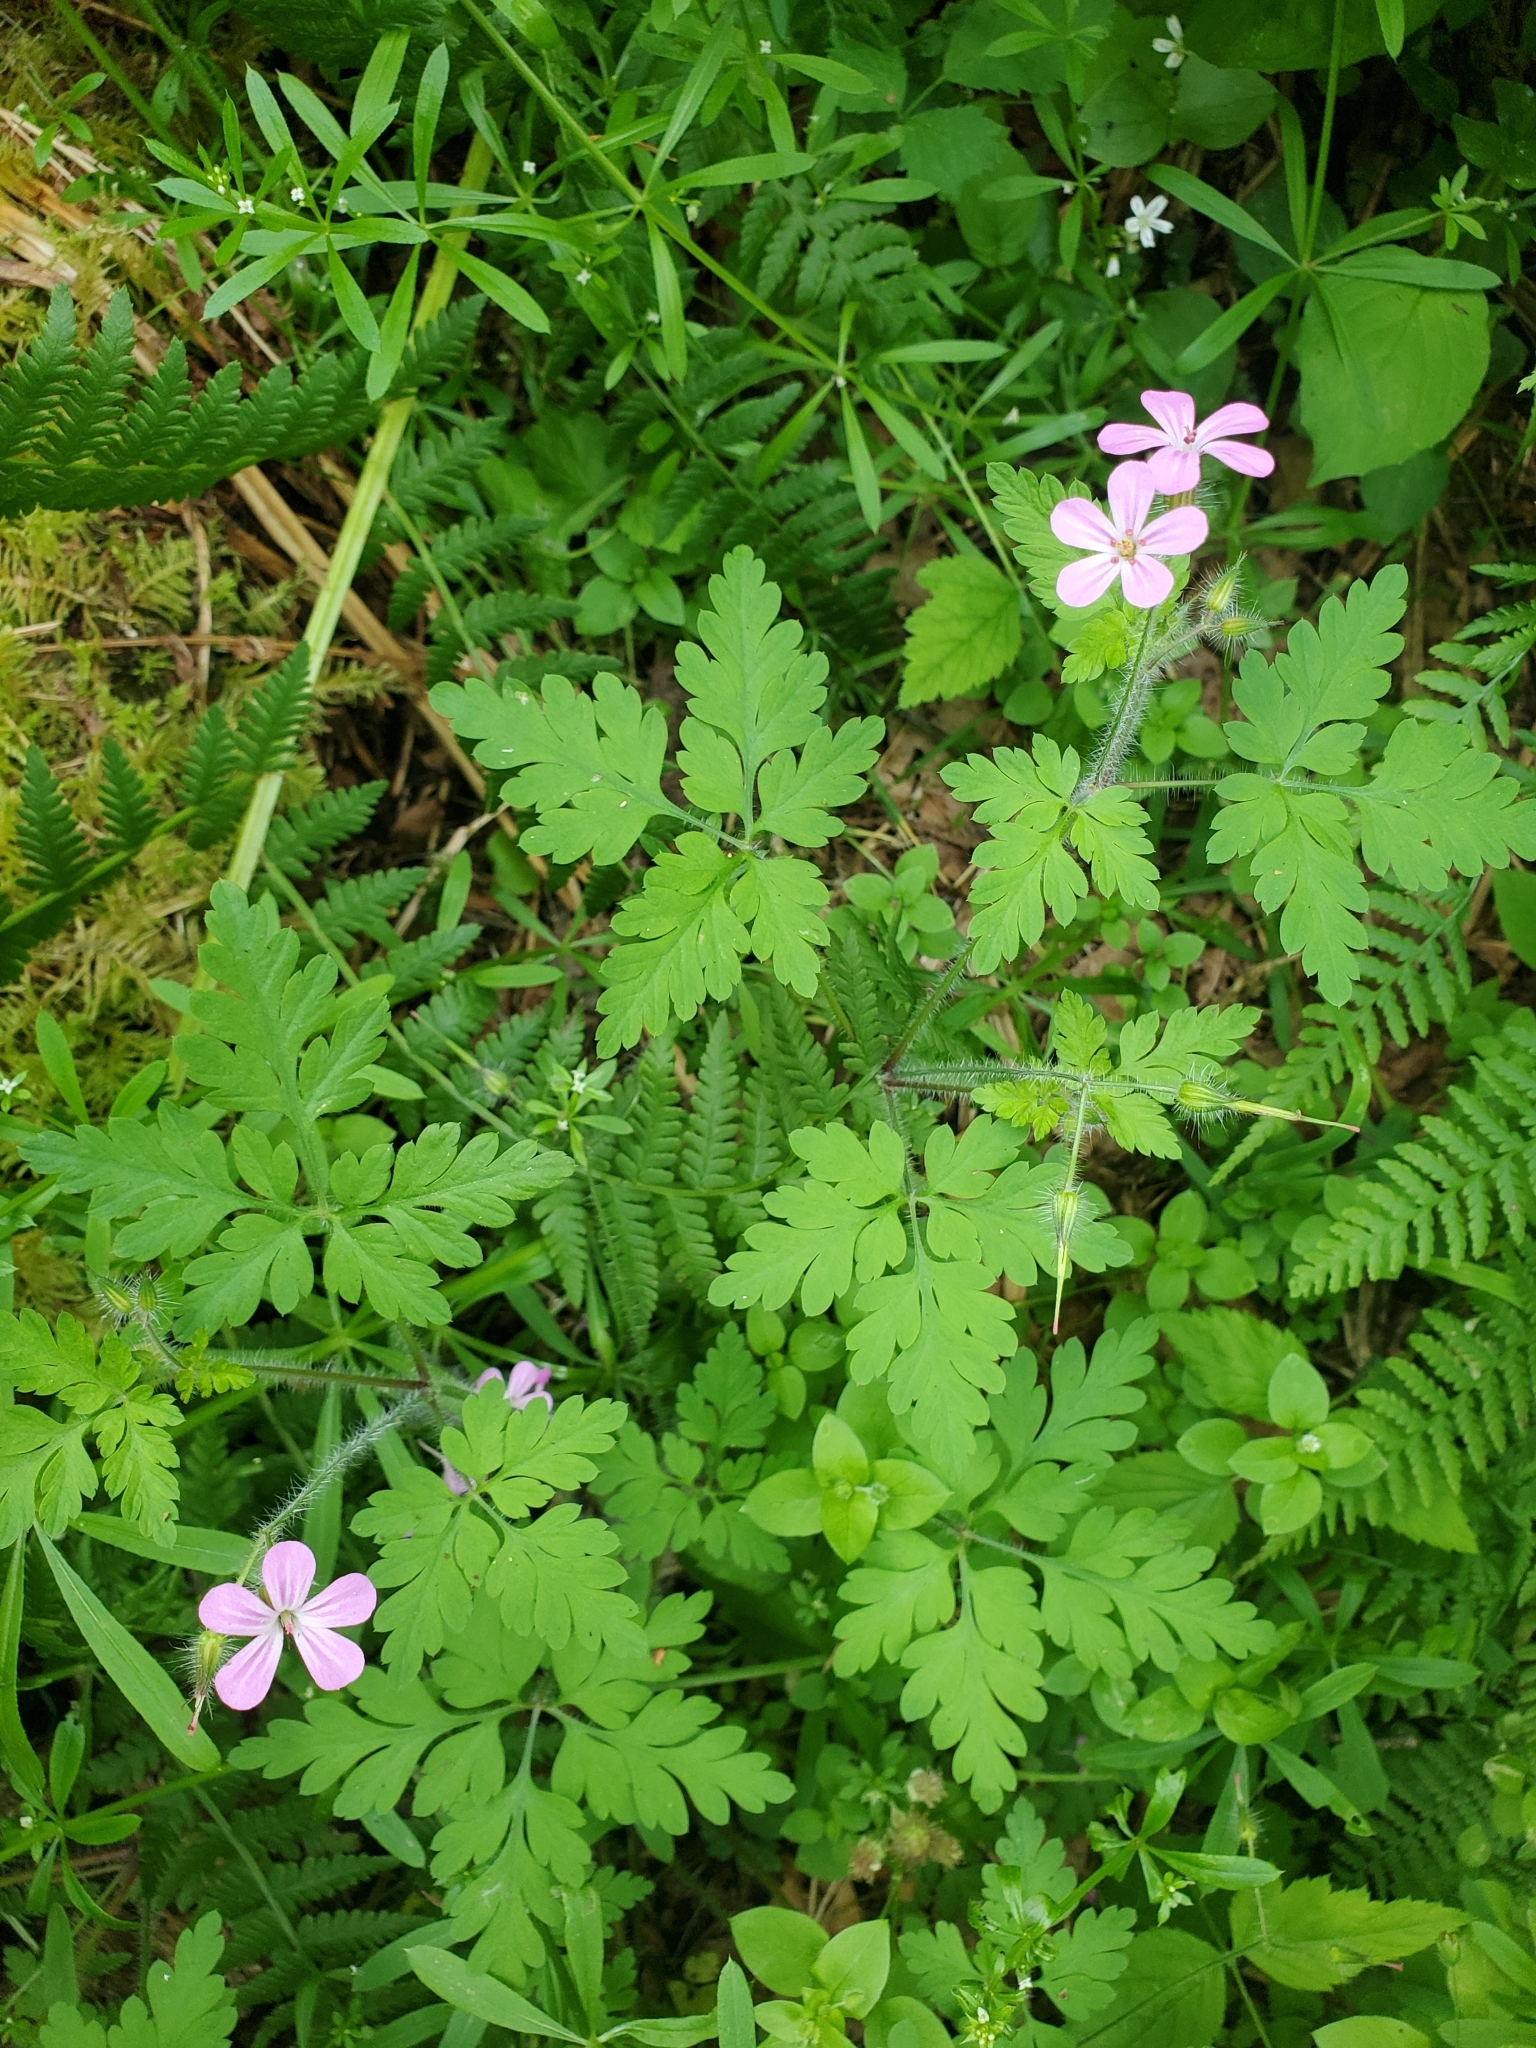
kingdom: Plantae
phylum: Tracheophyta
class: Magnoliopsida
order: Geraniales
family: Geraniaceae
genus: Geranium
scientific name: Geranium robertianum
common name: Herb-robert
